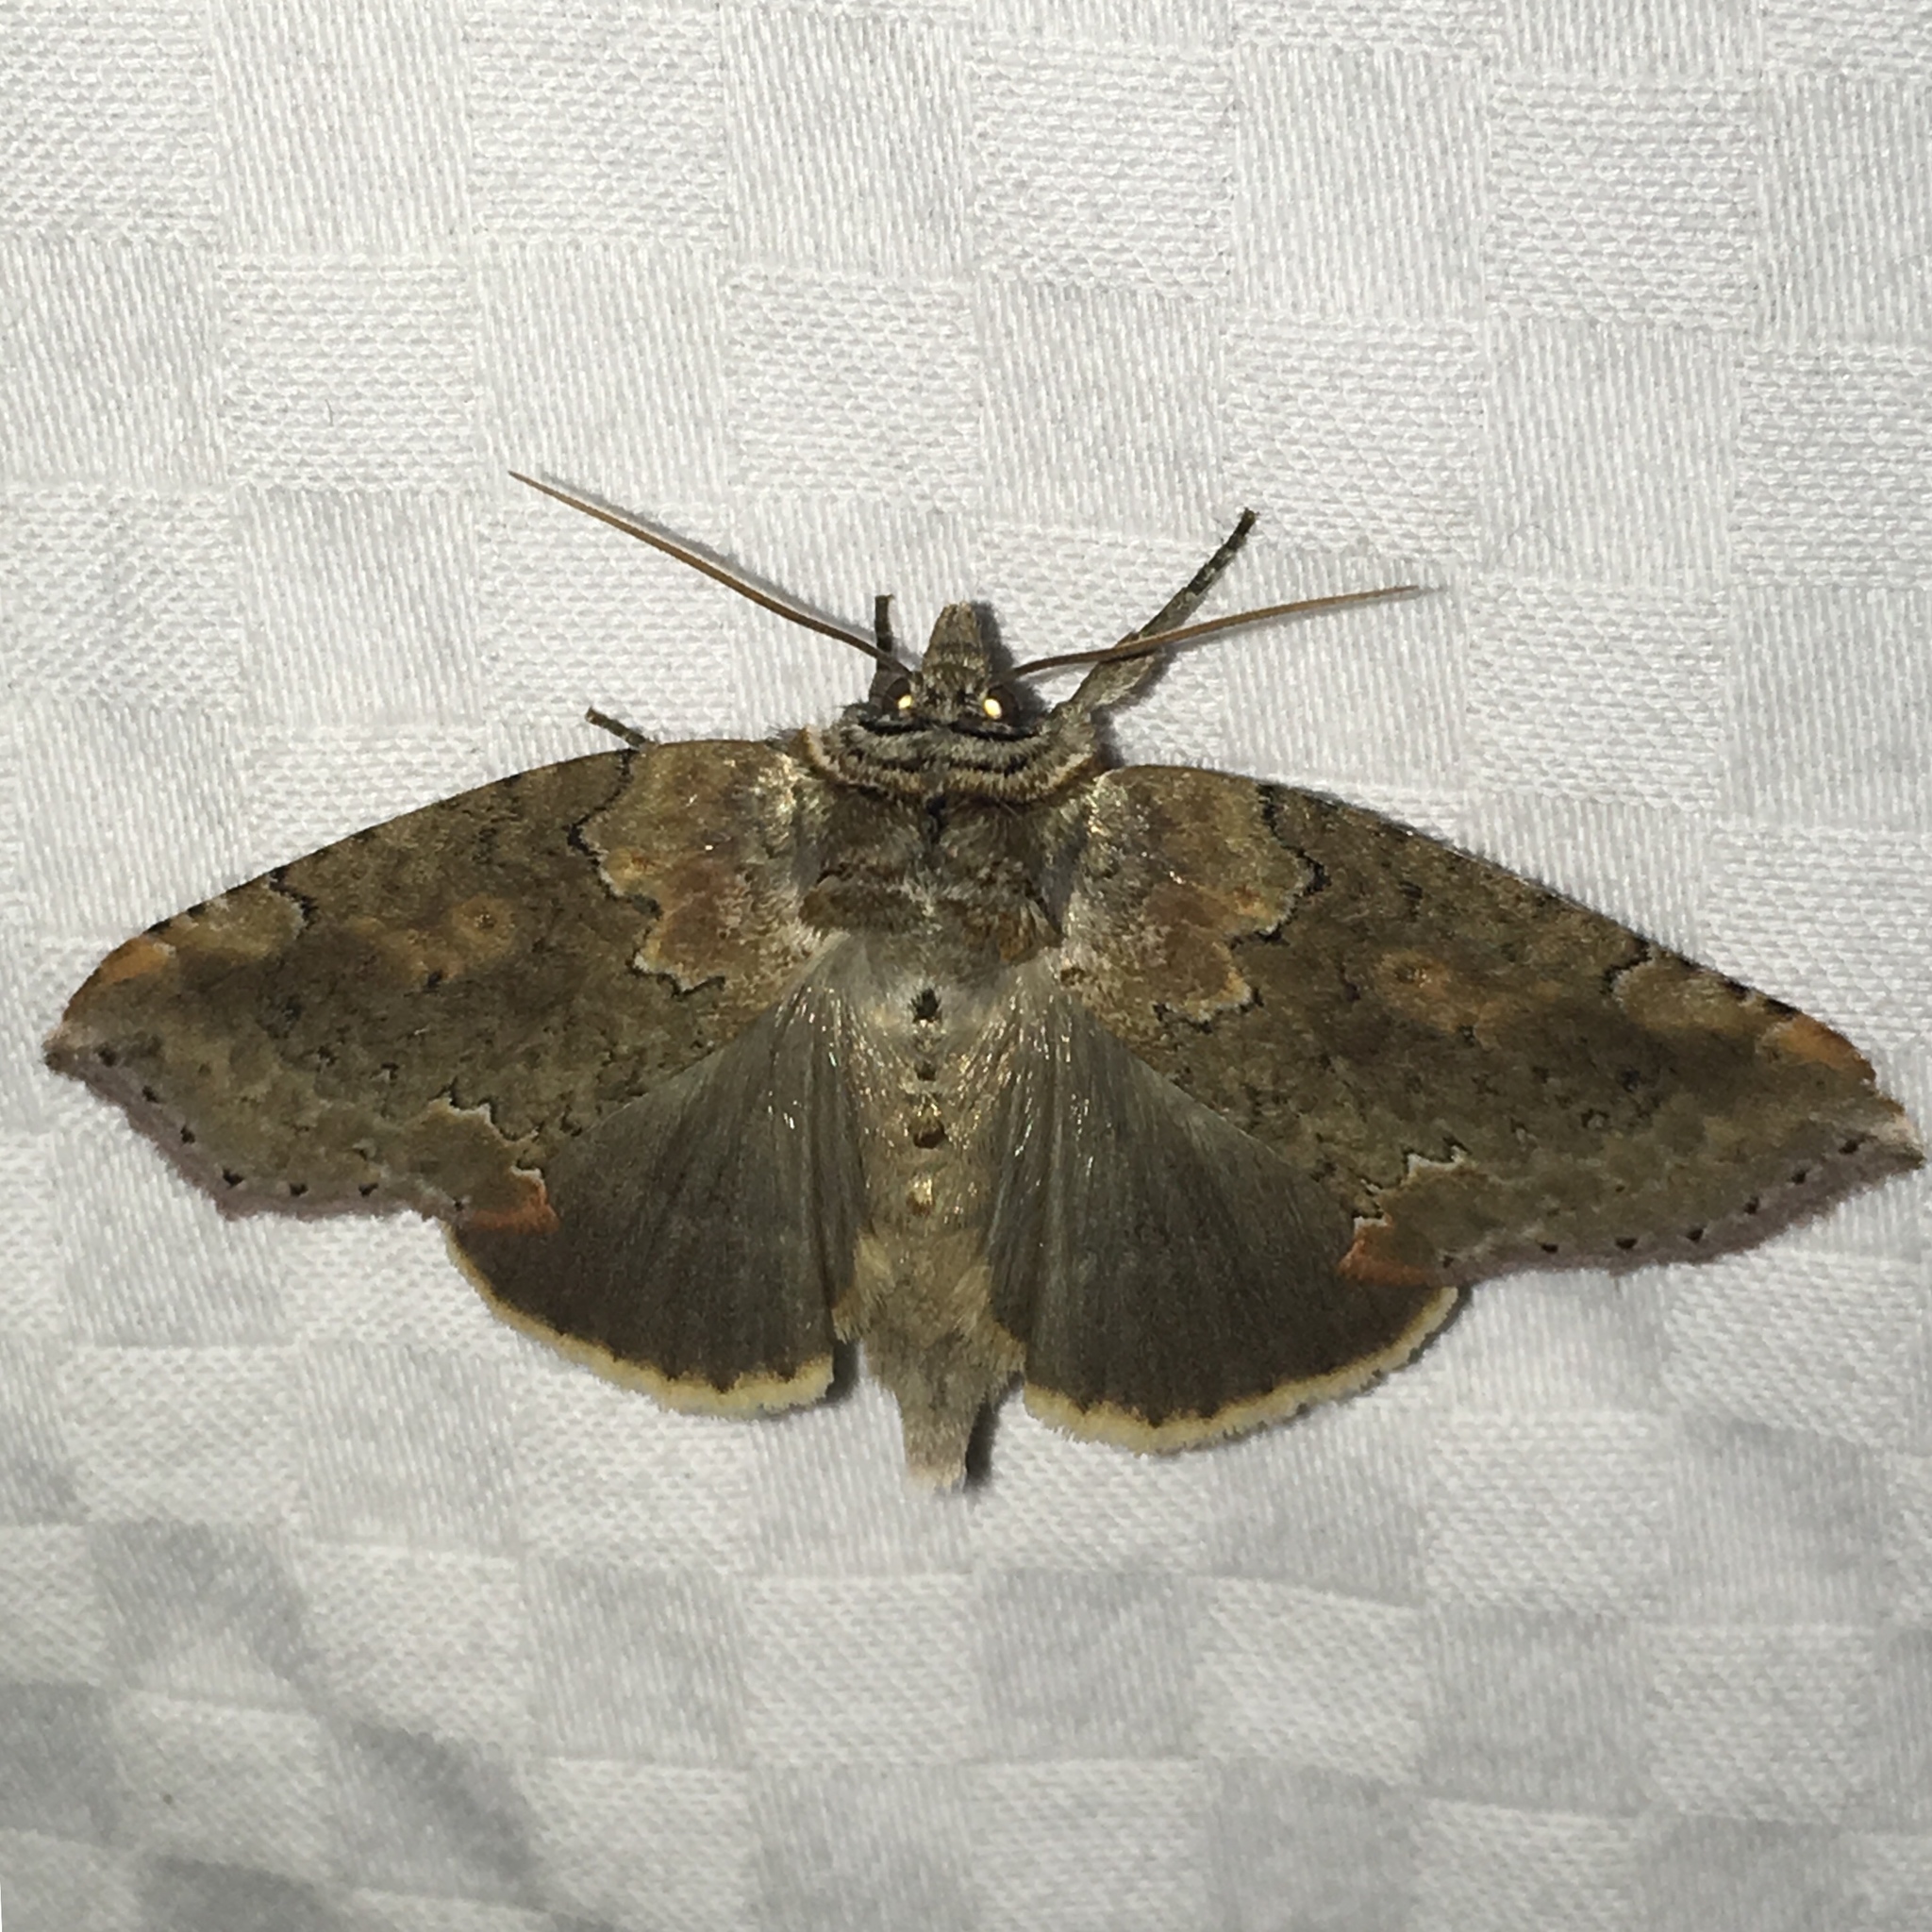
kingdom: Animalia
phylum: Arthropoda
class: Insecta
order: Lepidoptera
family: Drepanidae
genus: Pseudothyatira
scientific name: Pseudothyatira cymatophoroides
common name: Tufted thyatirid moth
